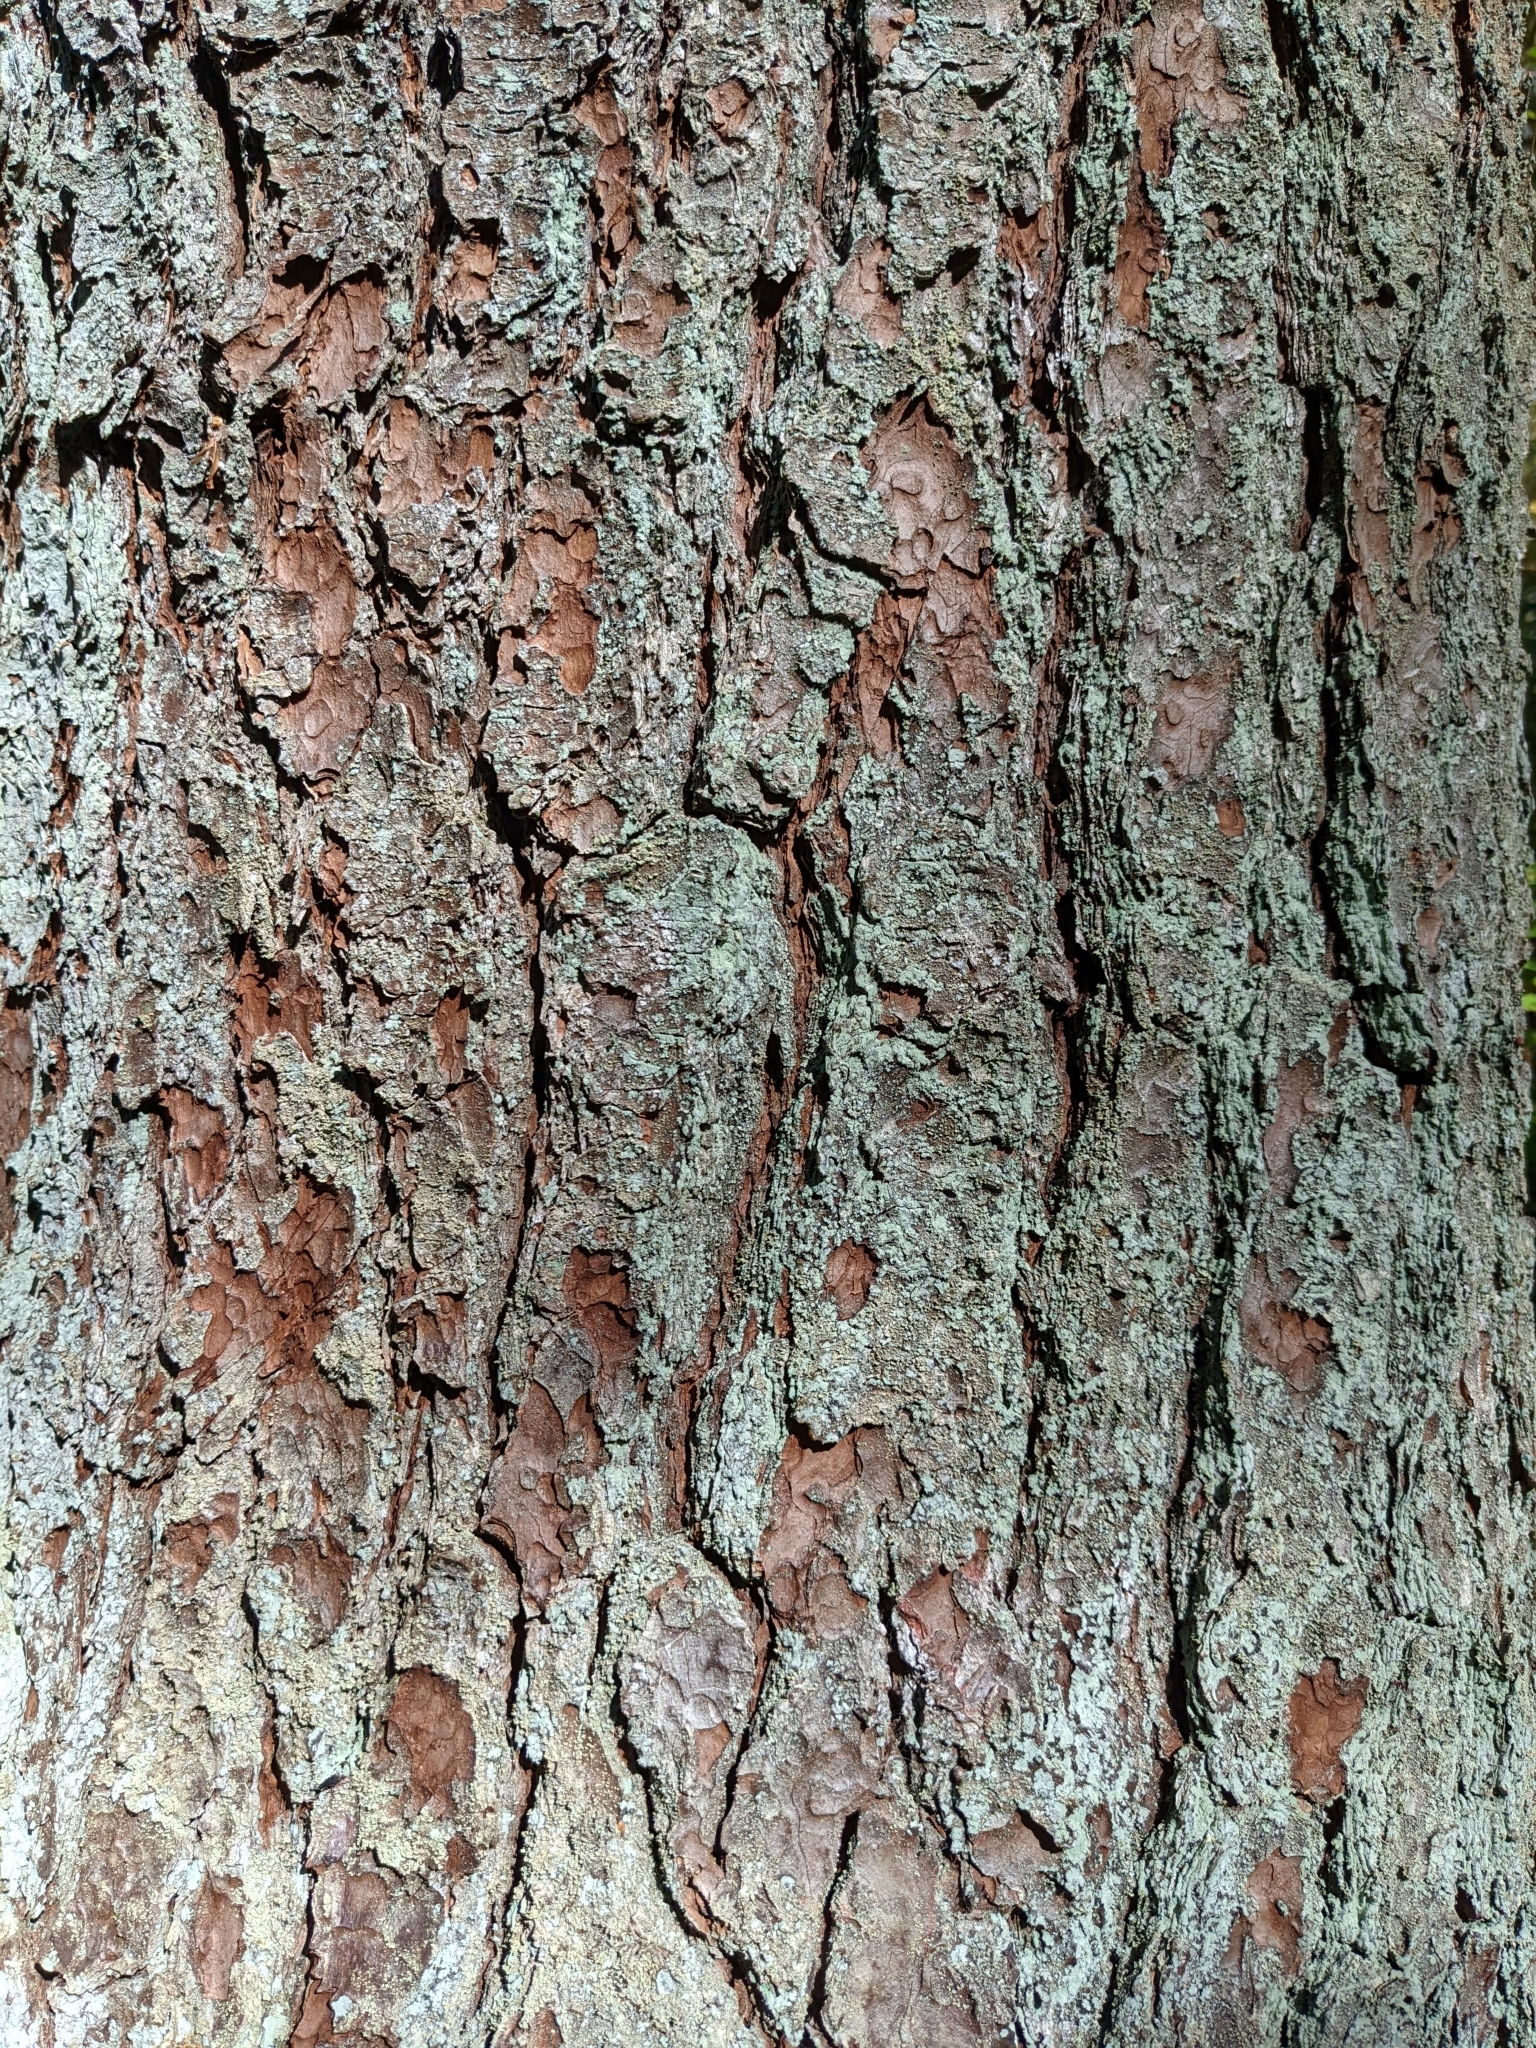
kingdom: Plantae
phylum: Tracheophyta
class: Pinopsida
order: Pinales
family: Pinaceae
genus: Pinus
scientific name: Pinus strobus
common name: Weymouth pine
